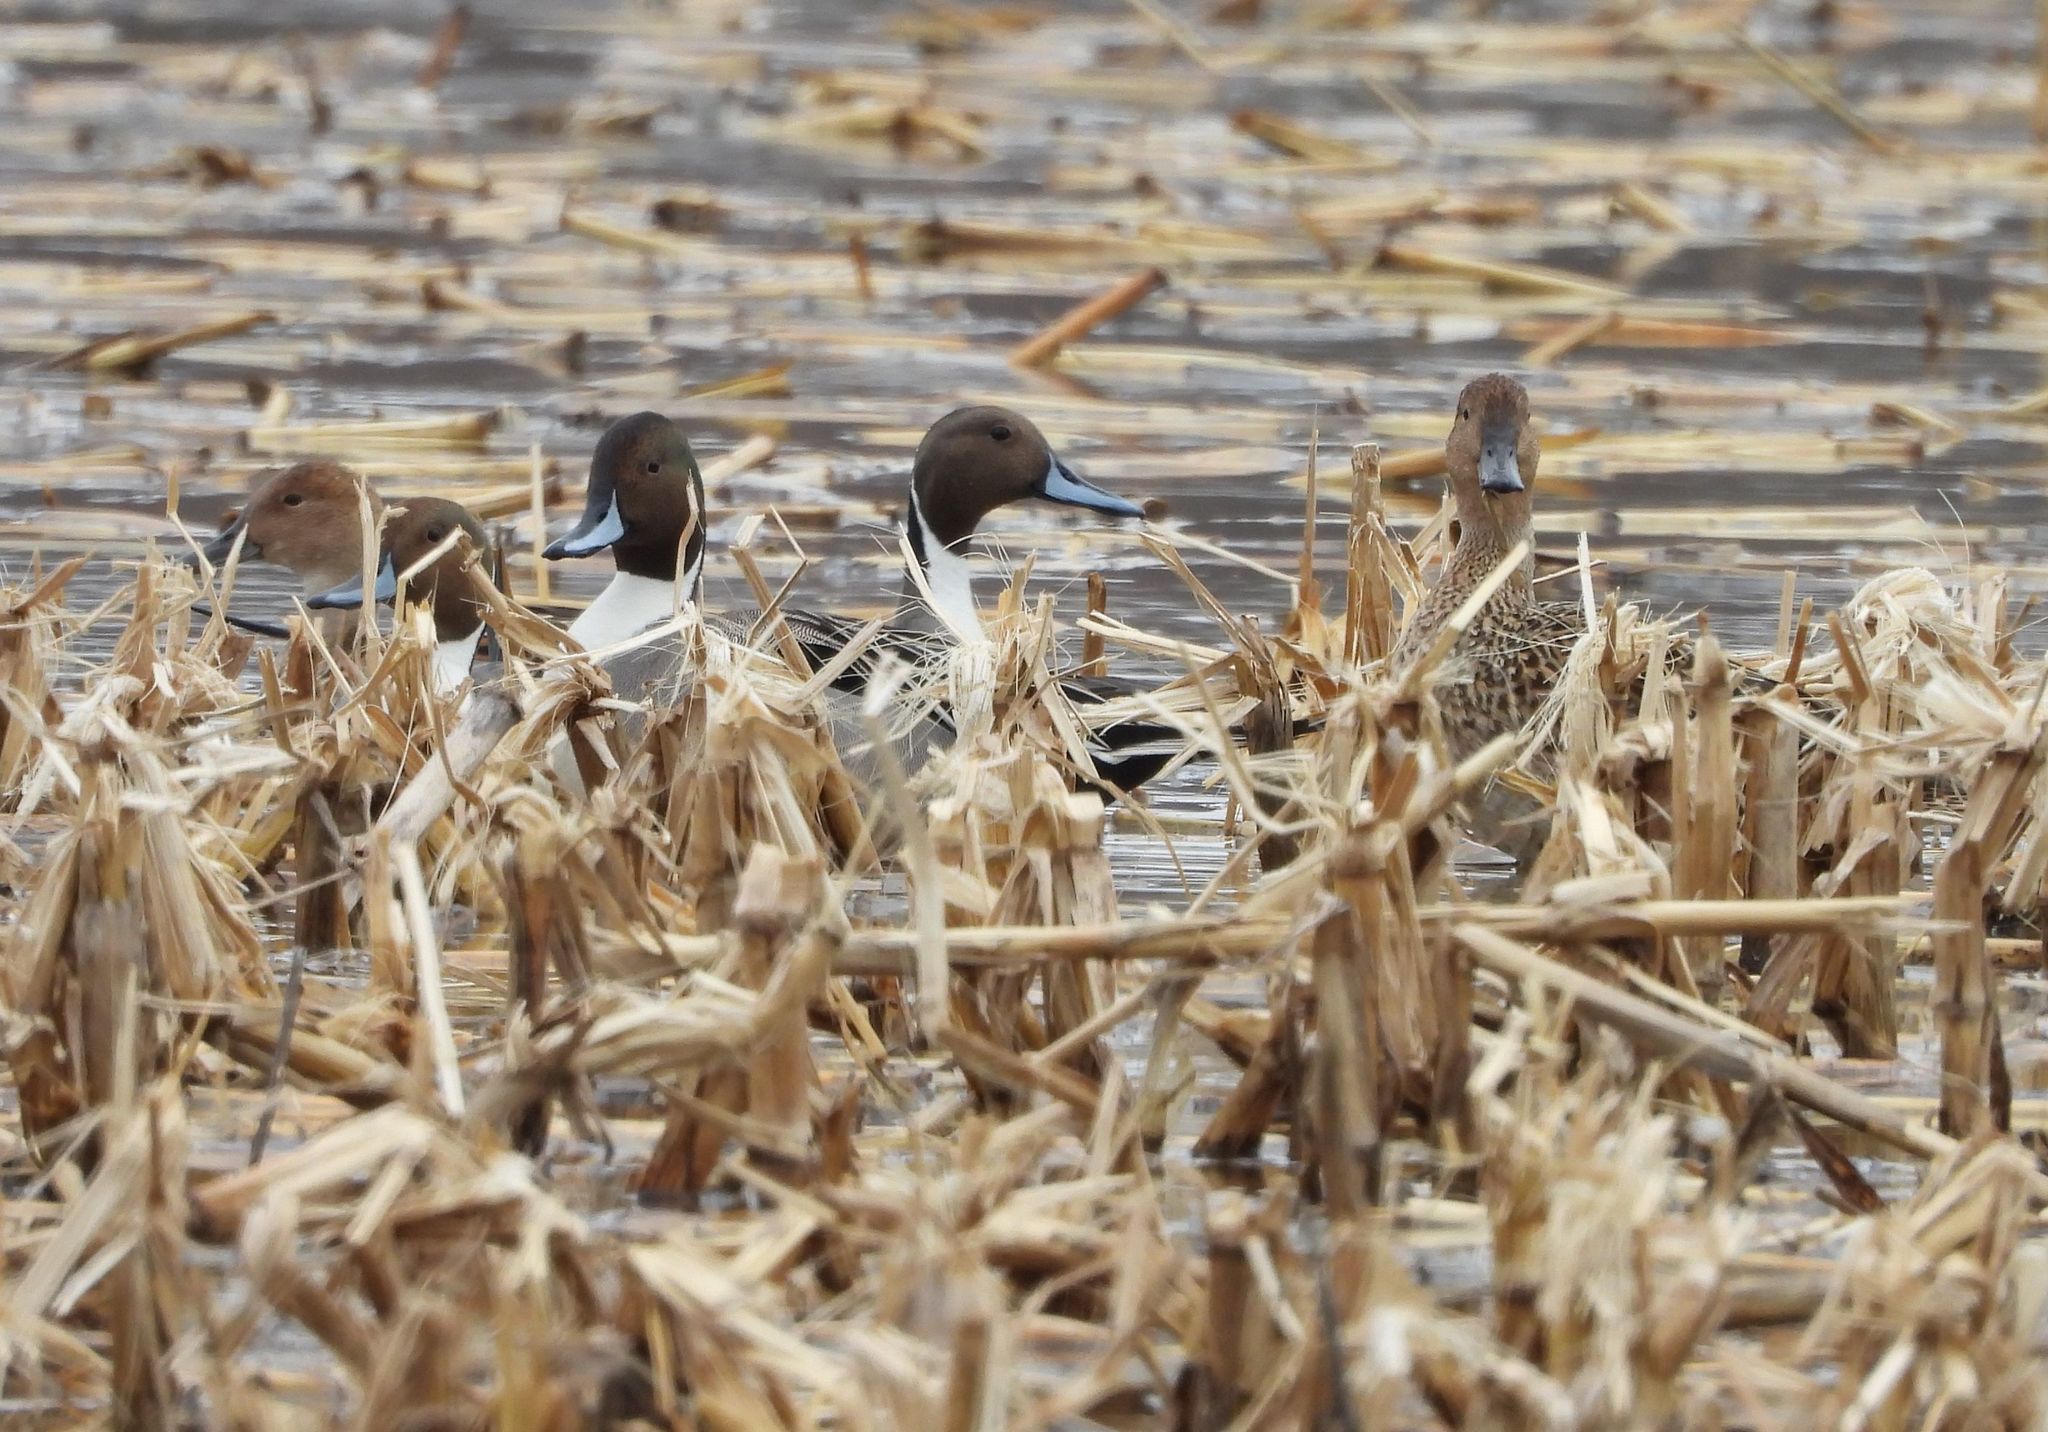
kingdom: Animalia
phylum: Chordata
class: Aves
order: Anseriformes
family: Anatidae
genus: Anas
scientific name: Anas acuta
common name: Northern pintail
